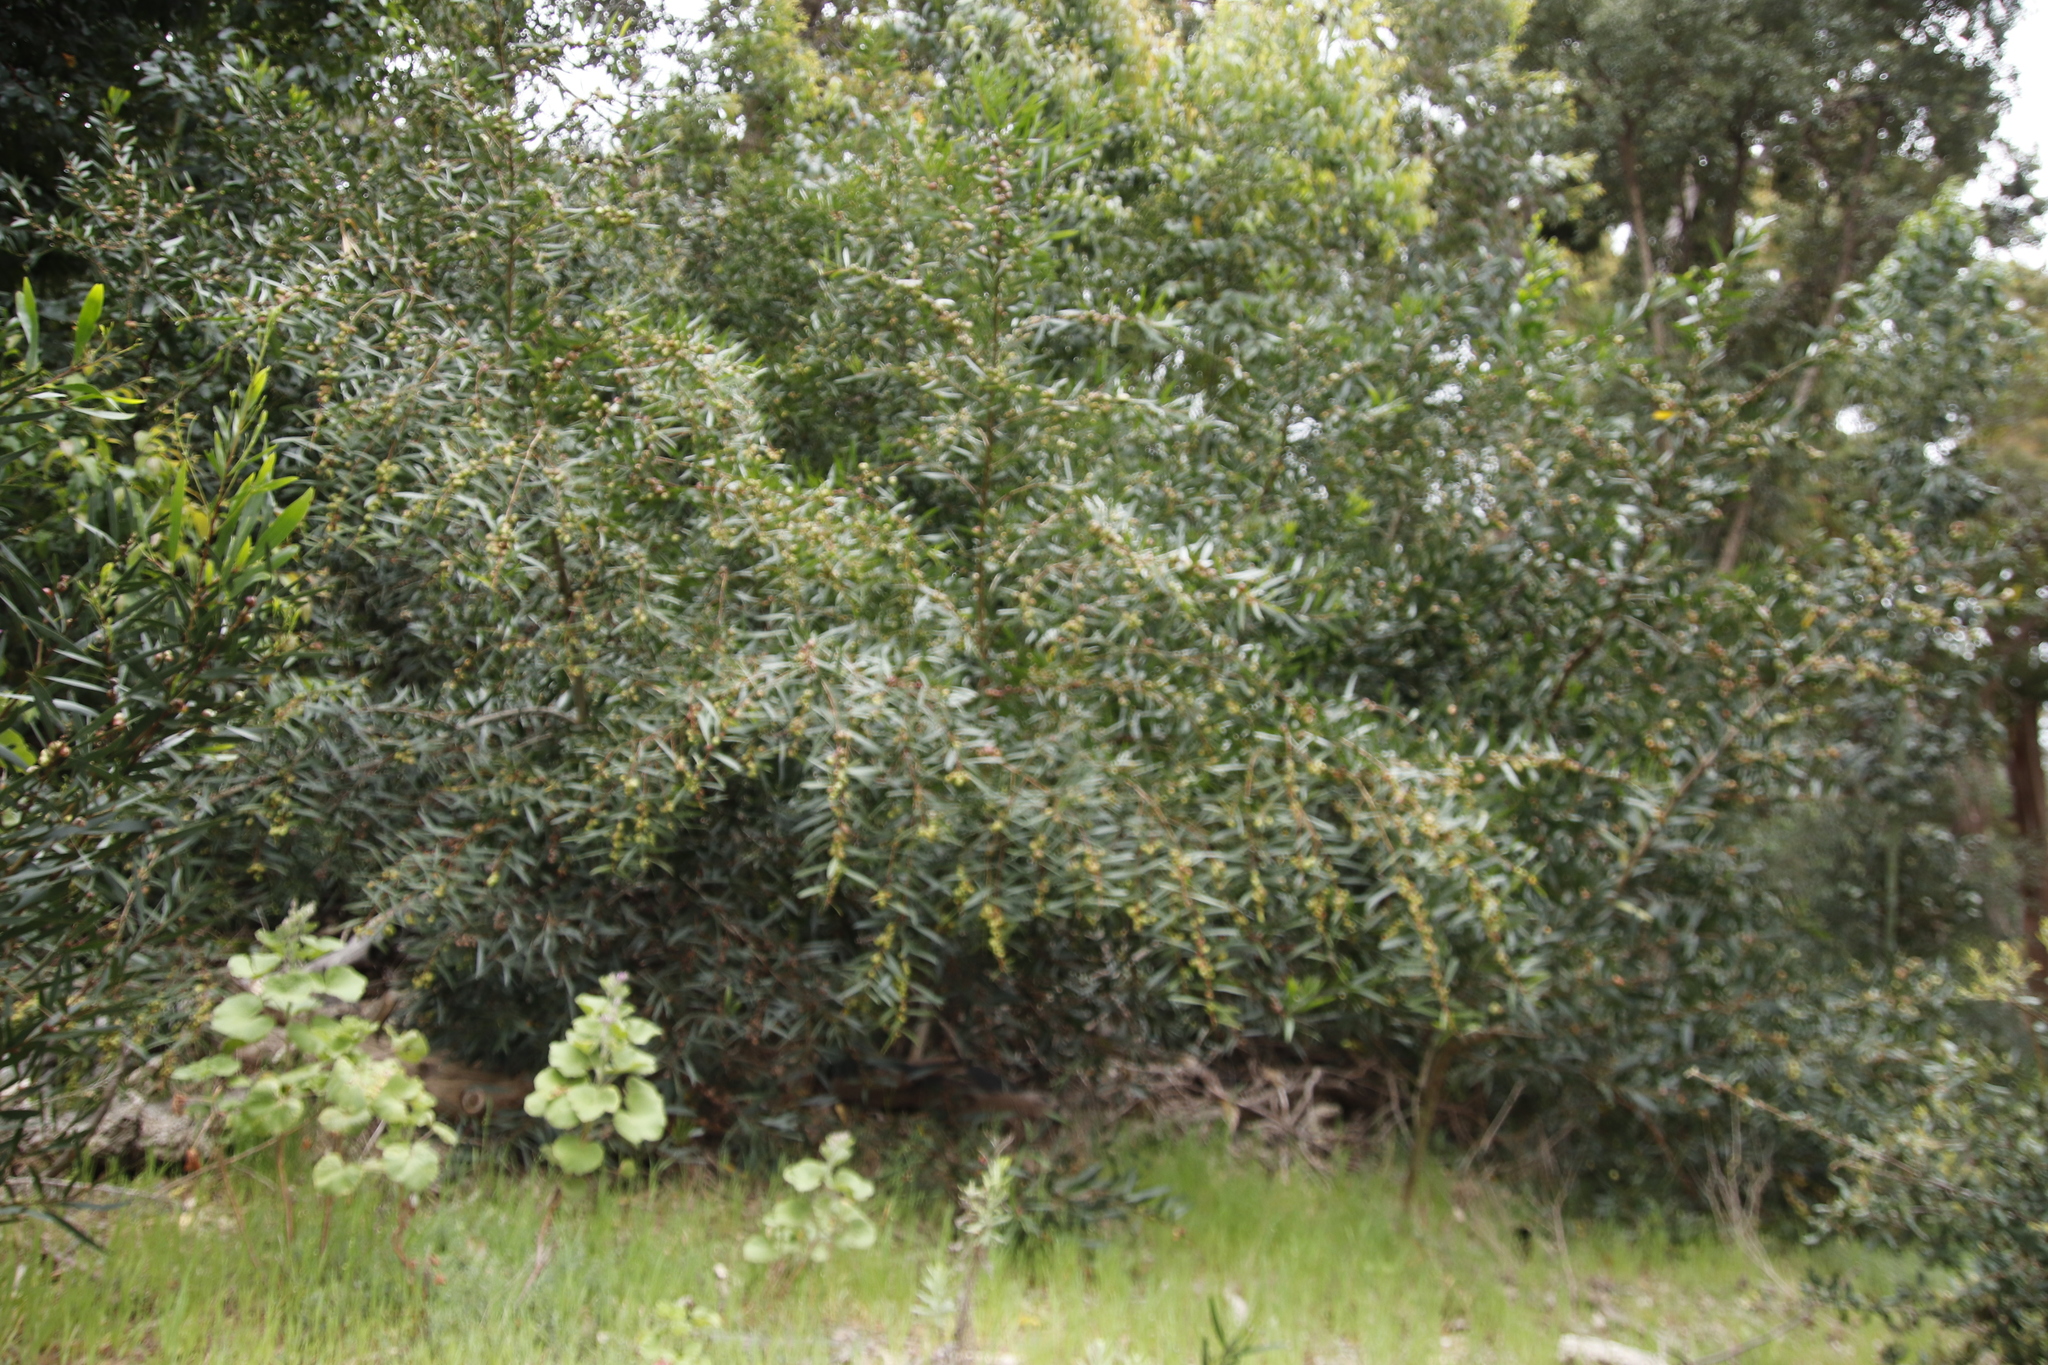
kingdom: Plantae
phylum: Tracheophyta
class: Magnoliopsida
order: Fabales
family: Fabaceae
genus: Acacia
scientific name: Acacia longifolia
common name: Sydney golden wattle
